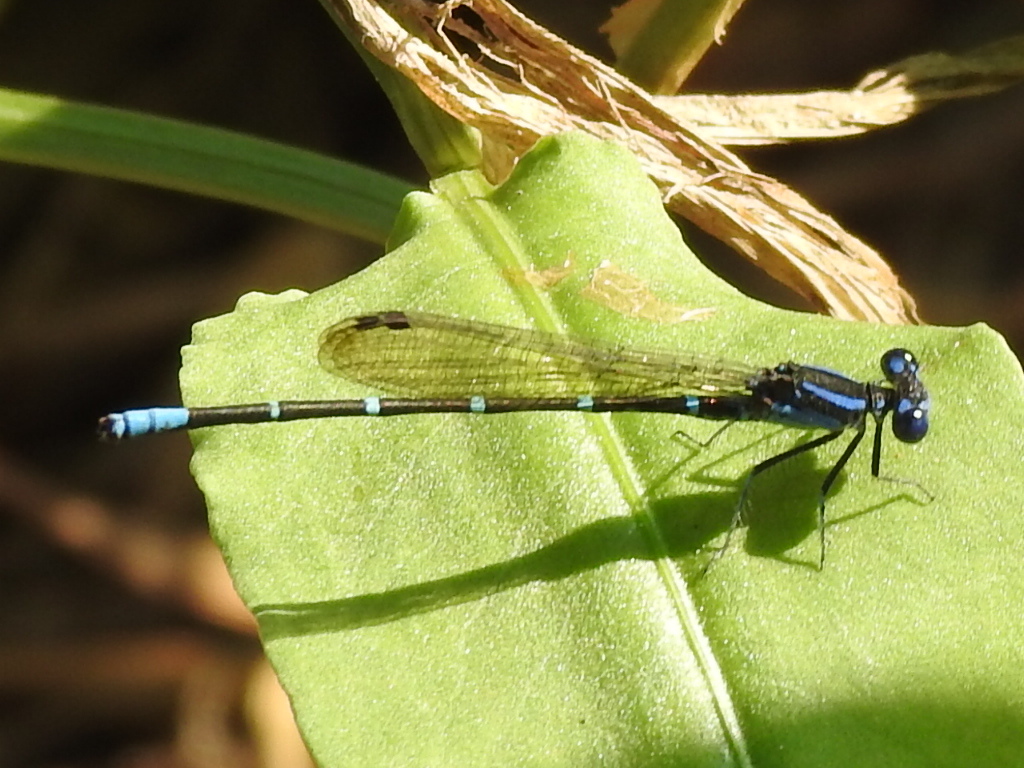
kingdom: Animalia
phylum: Arthropoda
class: Insecta
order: Odonata
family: Coenagrionidae
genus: Argia
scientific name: Argia sedula
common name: Blue-ringed dancer
